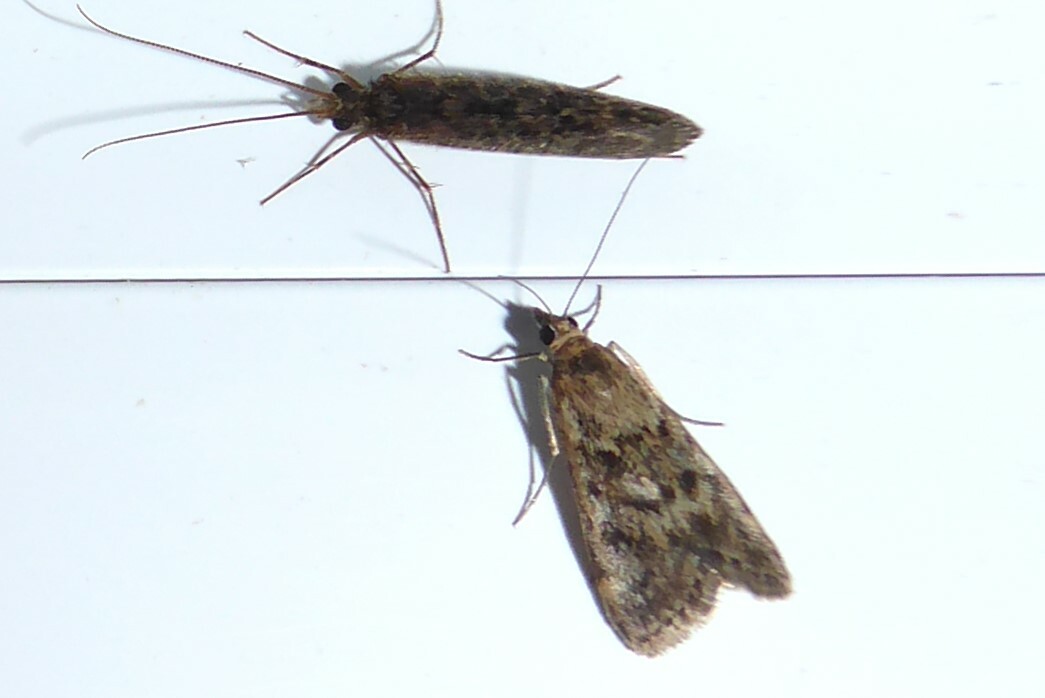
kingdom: Animalia
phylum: Arthropoda
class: Insecta
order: Lepidoptera
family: Crambidae
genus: Achyra
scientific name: Achyra affinitalis
